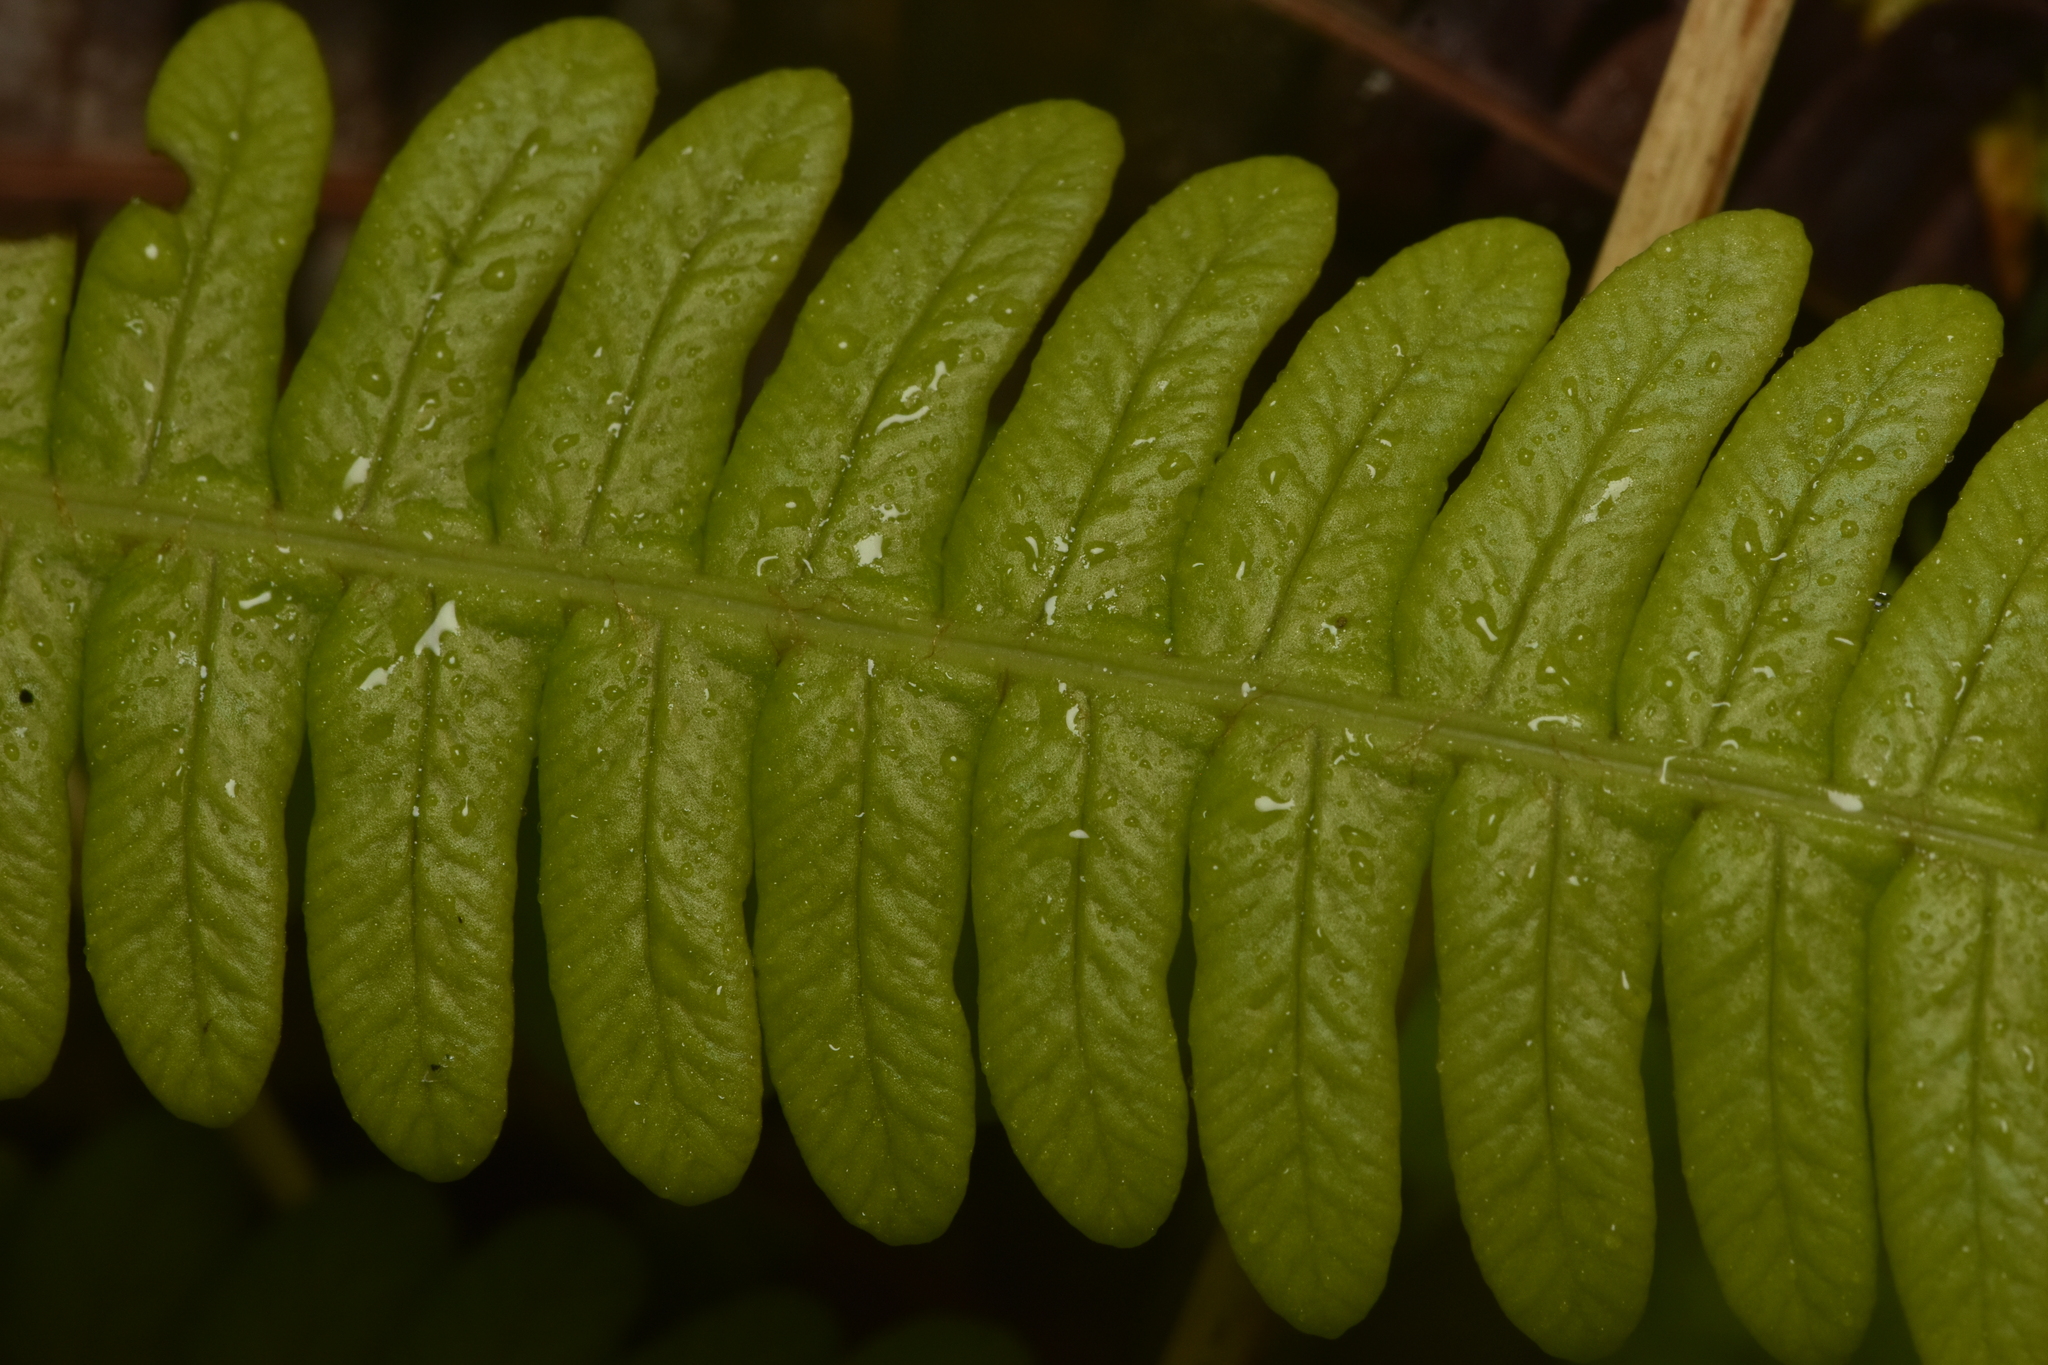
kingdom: Plantae
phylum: Tracheophyta
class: Polypodiopsida
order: Polypodiales
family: Blechnaceae
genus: Struthiopteris
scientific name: Struthiopteris spicant
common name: Deer fern
